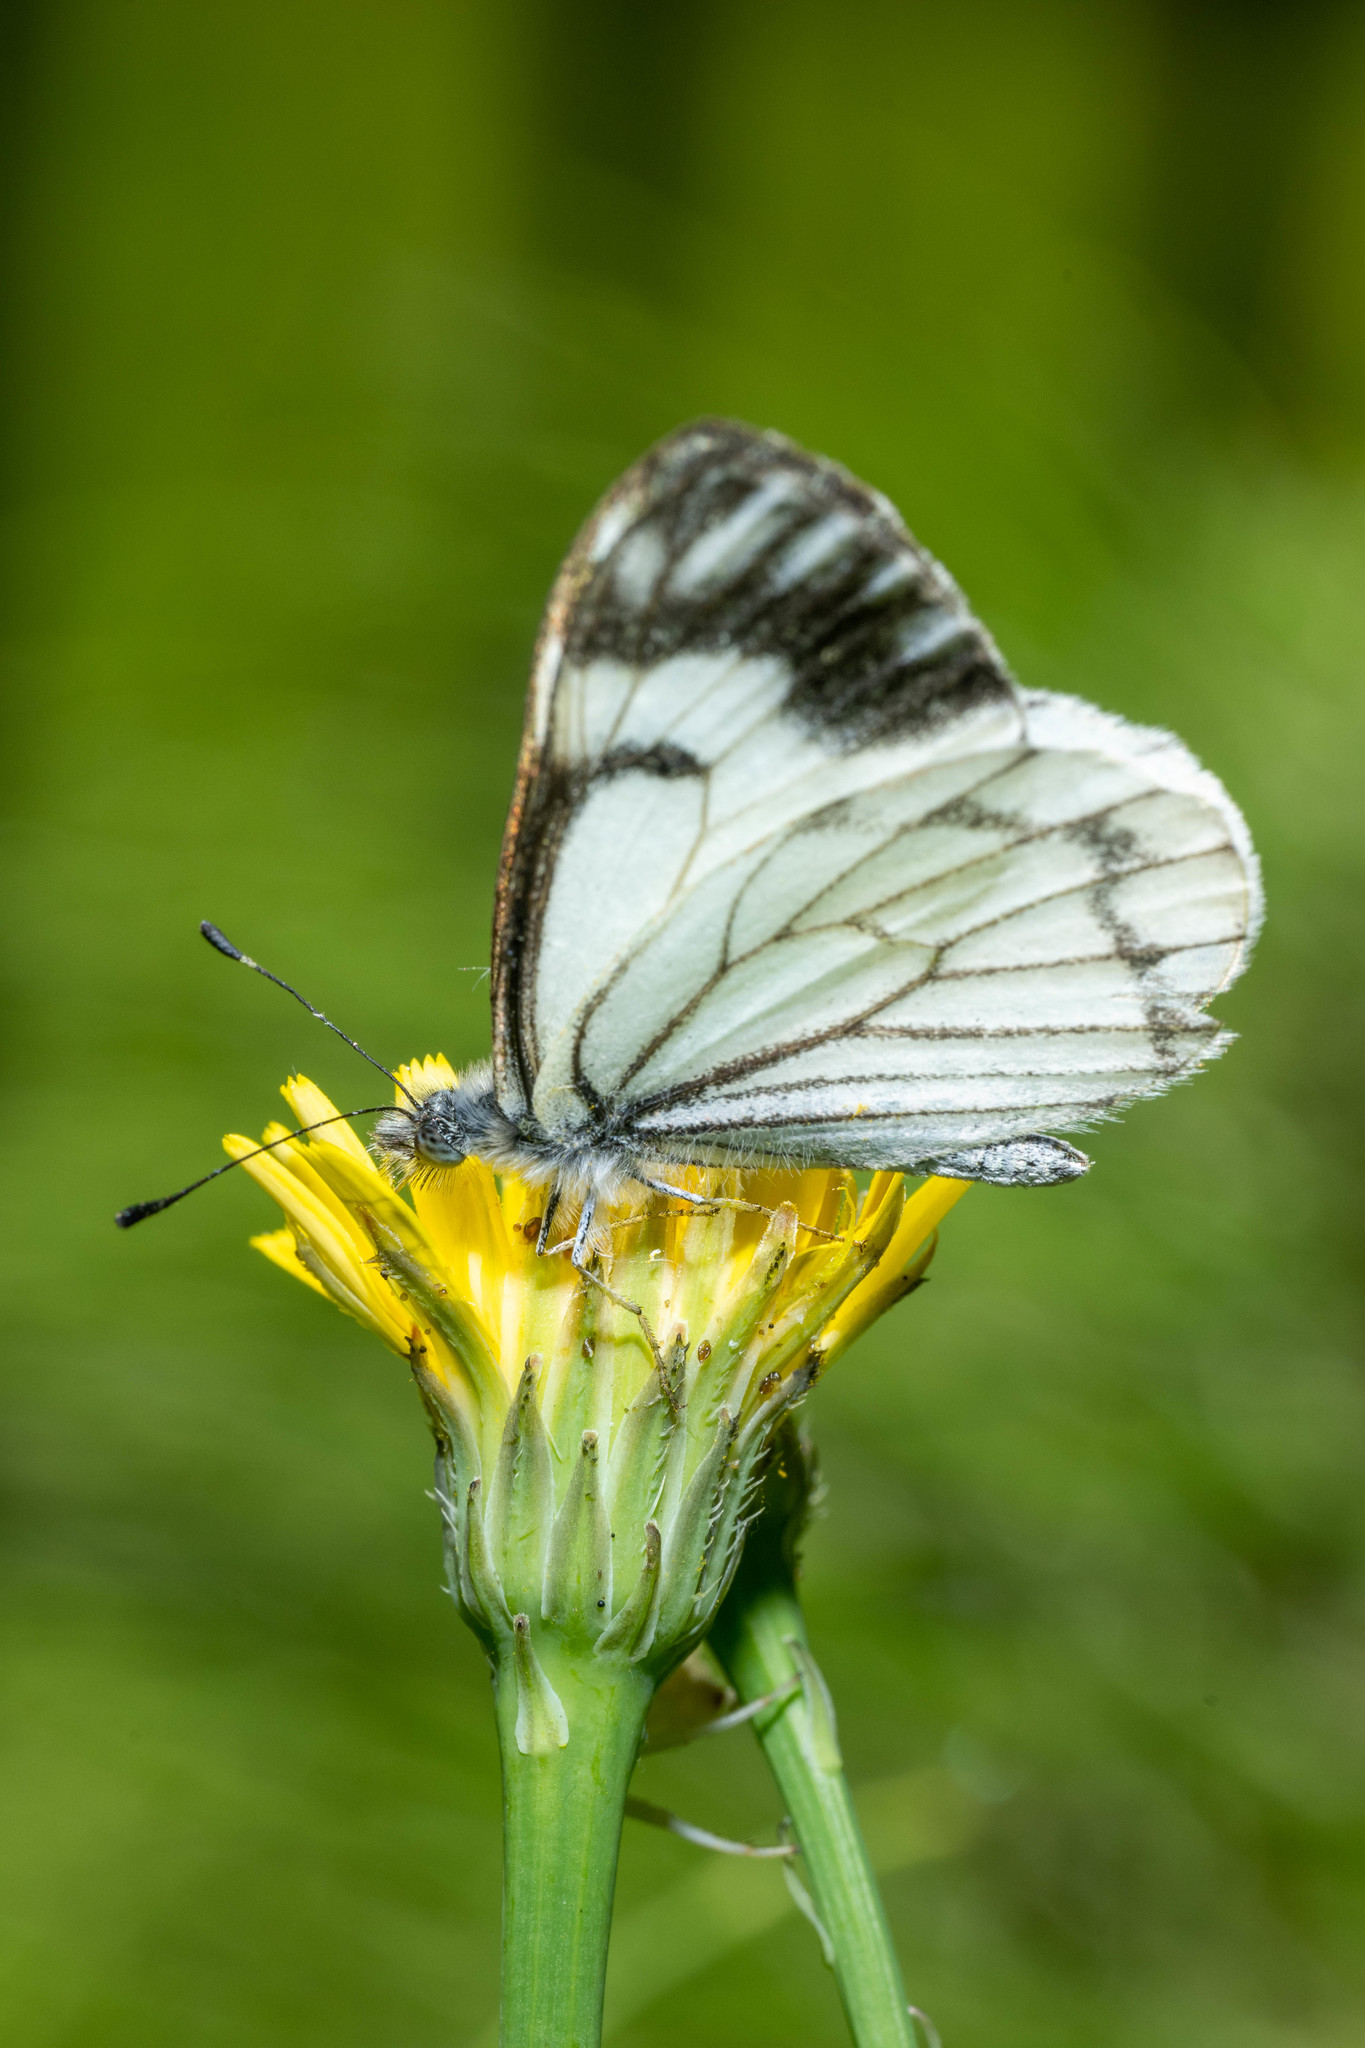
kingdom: Animalia
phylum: Arthropoda
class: Insecta
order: Lepidoptera
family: Pieridae
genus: Neophasia
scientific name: Neophasia menapia
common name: Pine white
